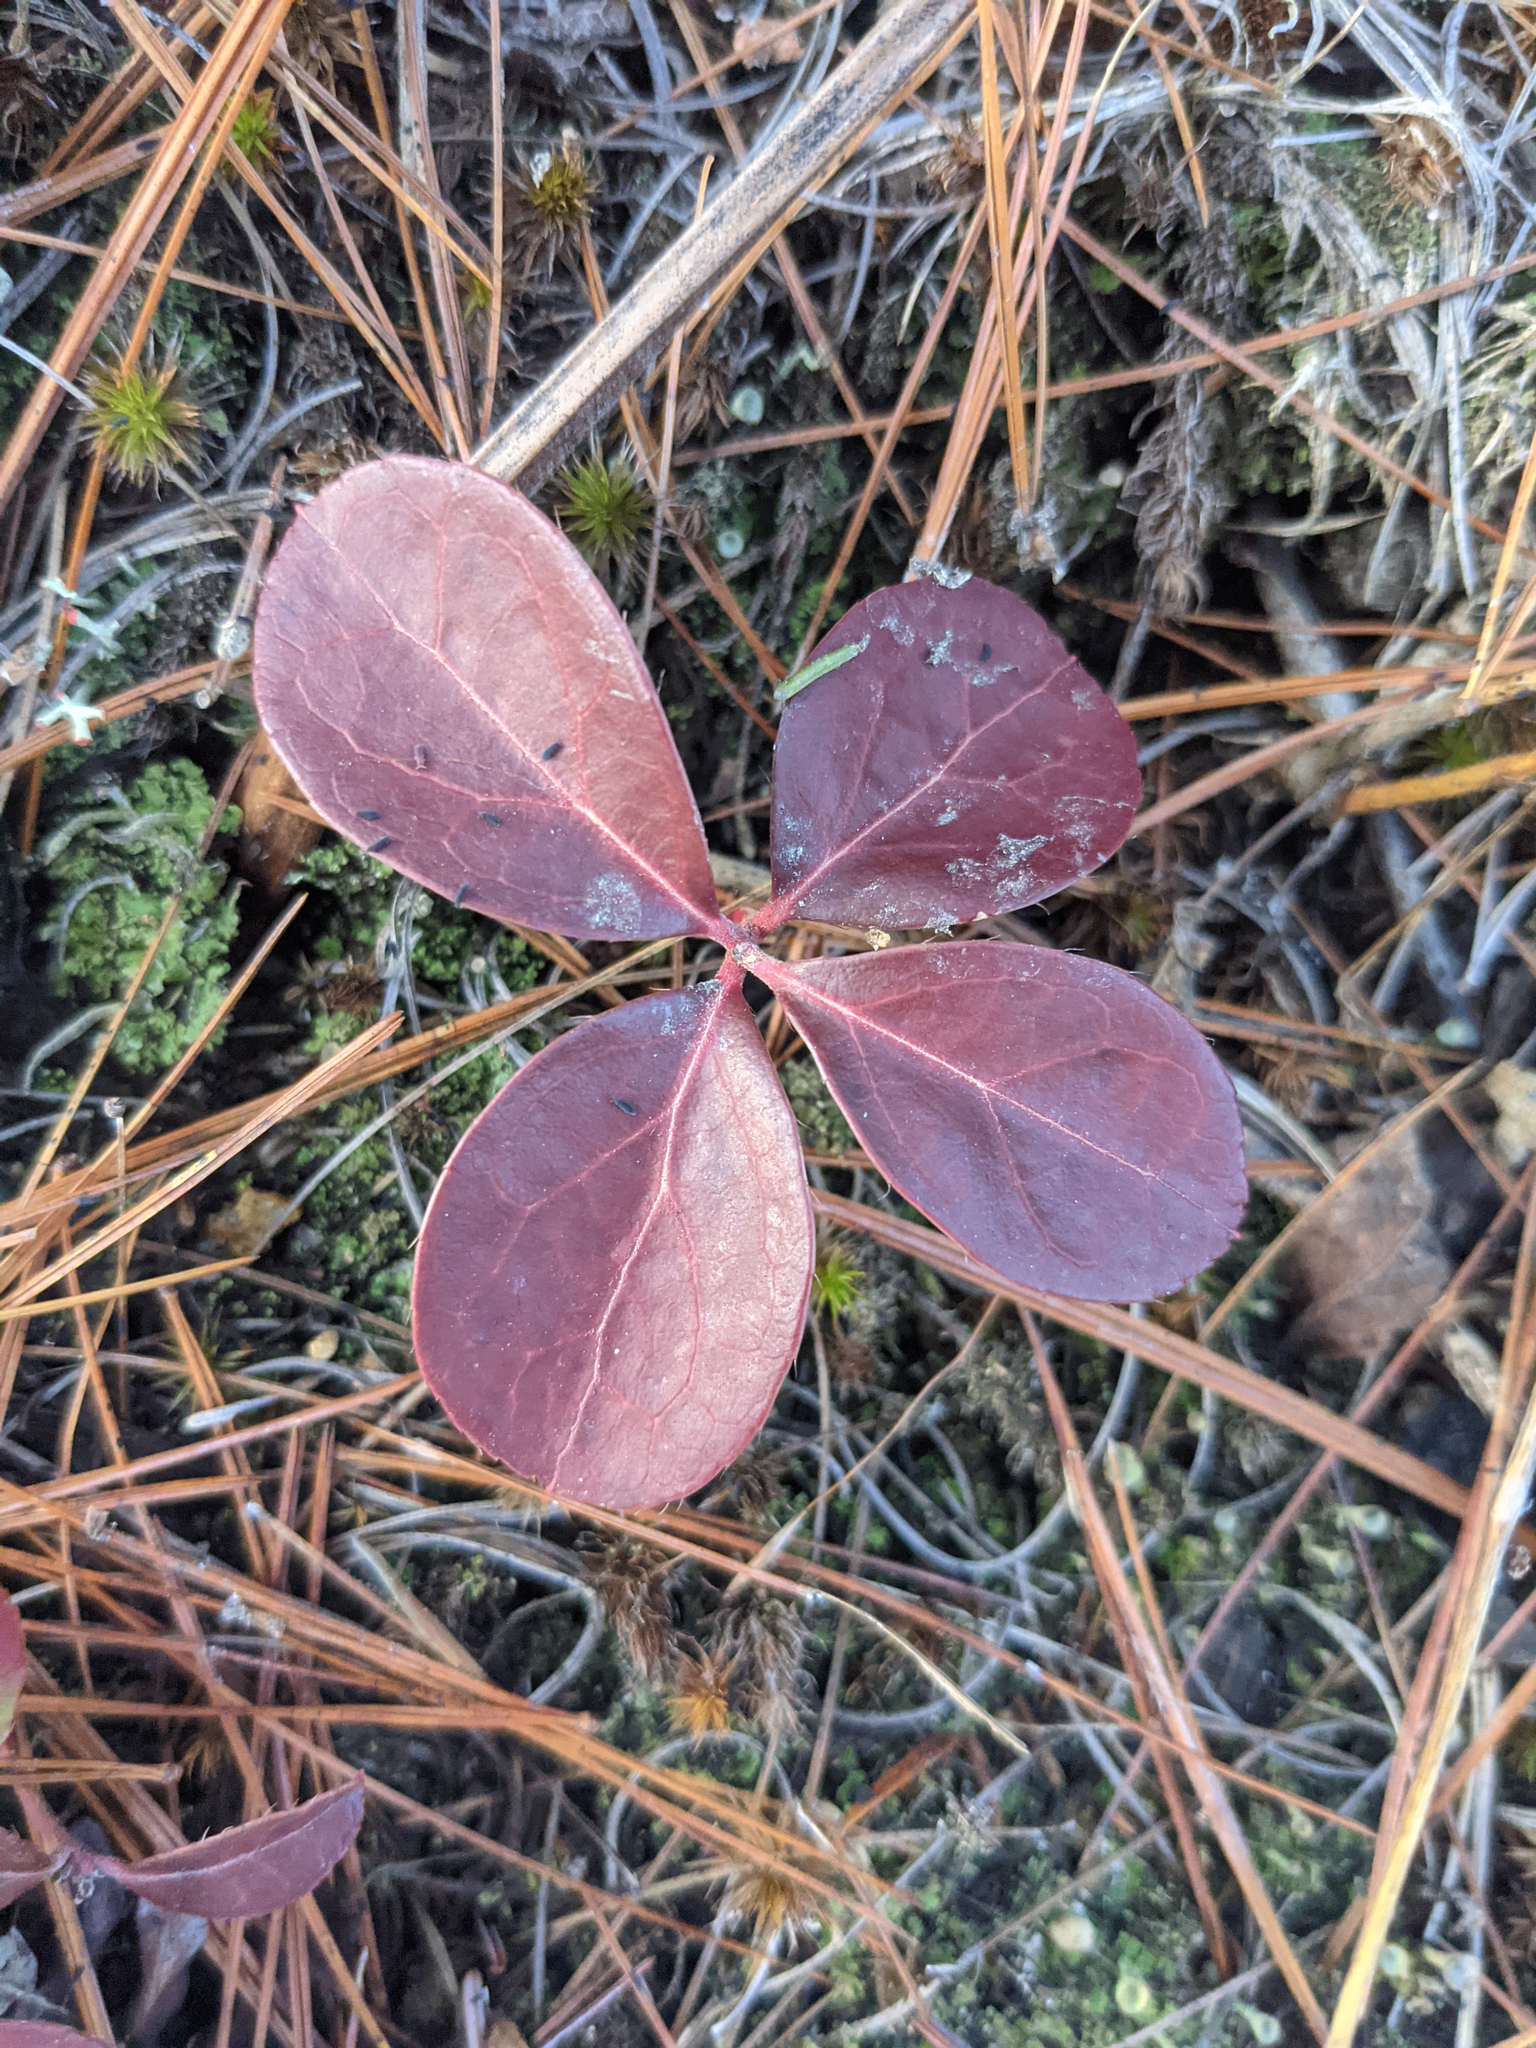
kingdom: Plantae
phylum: Tracheophyta
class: Magnoliopsida
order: Ericales
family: Ericaceae
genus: Gaultheria
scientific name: Gaultheria procumbens
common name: Checkerberry
